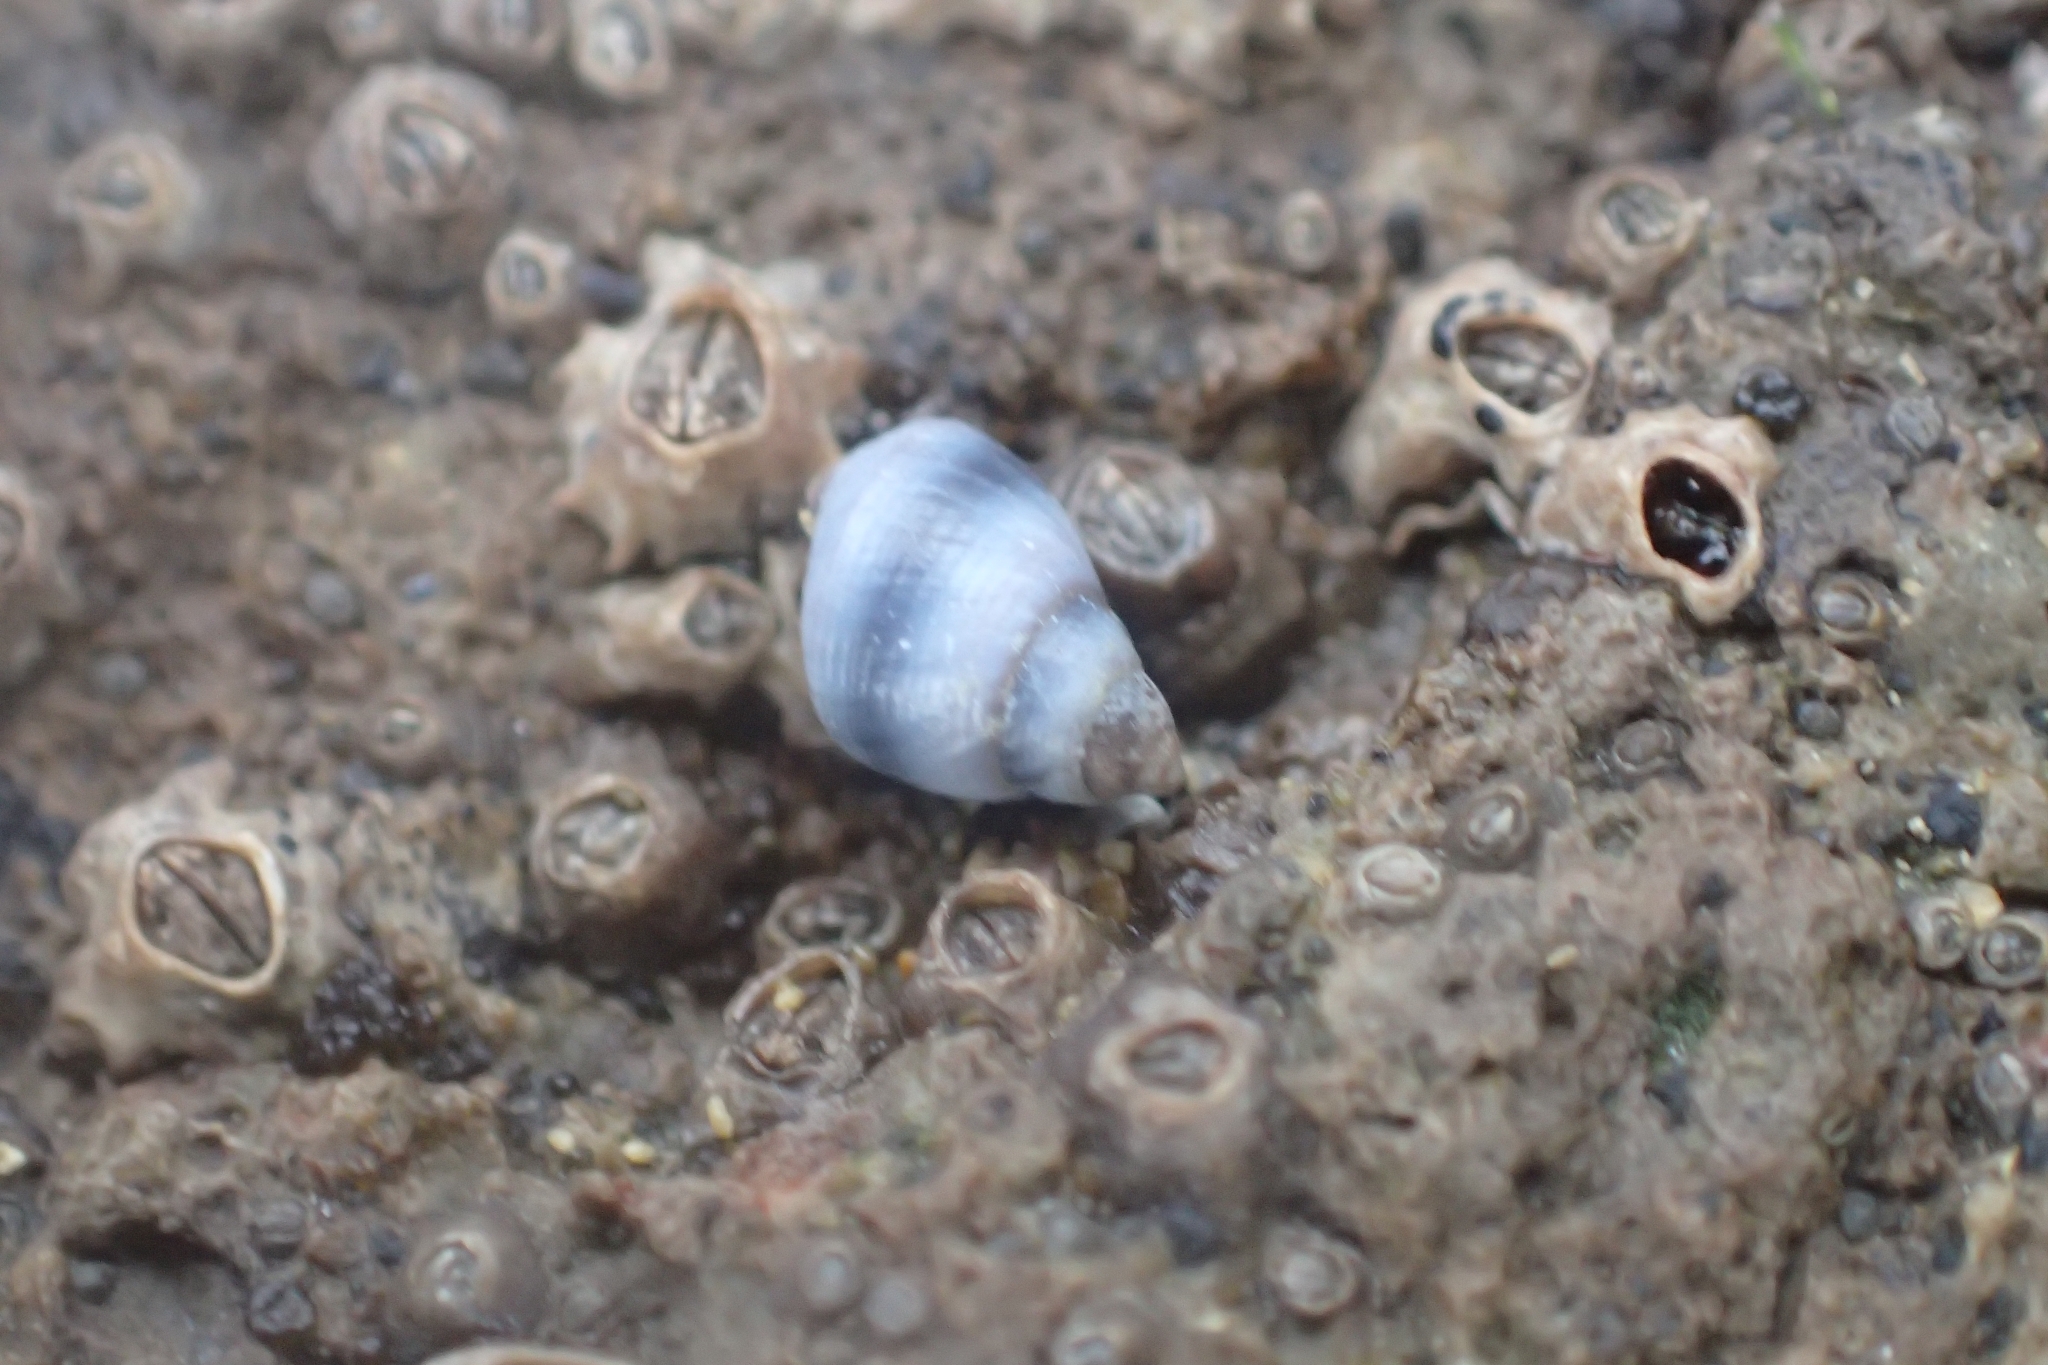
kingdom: Animalia
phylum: Mollusca
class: Gastropoda
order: Littorinimorpha
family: Littorinidae
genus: Austrolittorina
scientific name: Austrolittorina antipodum
